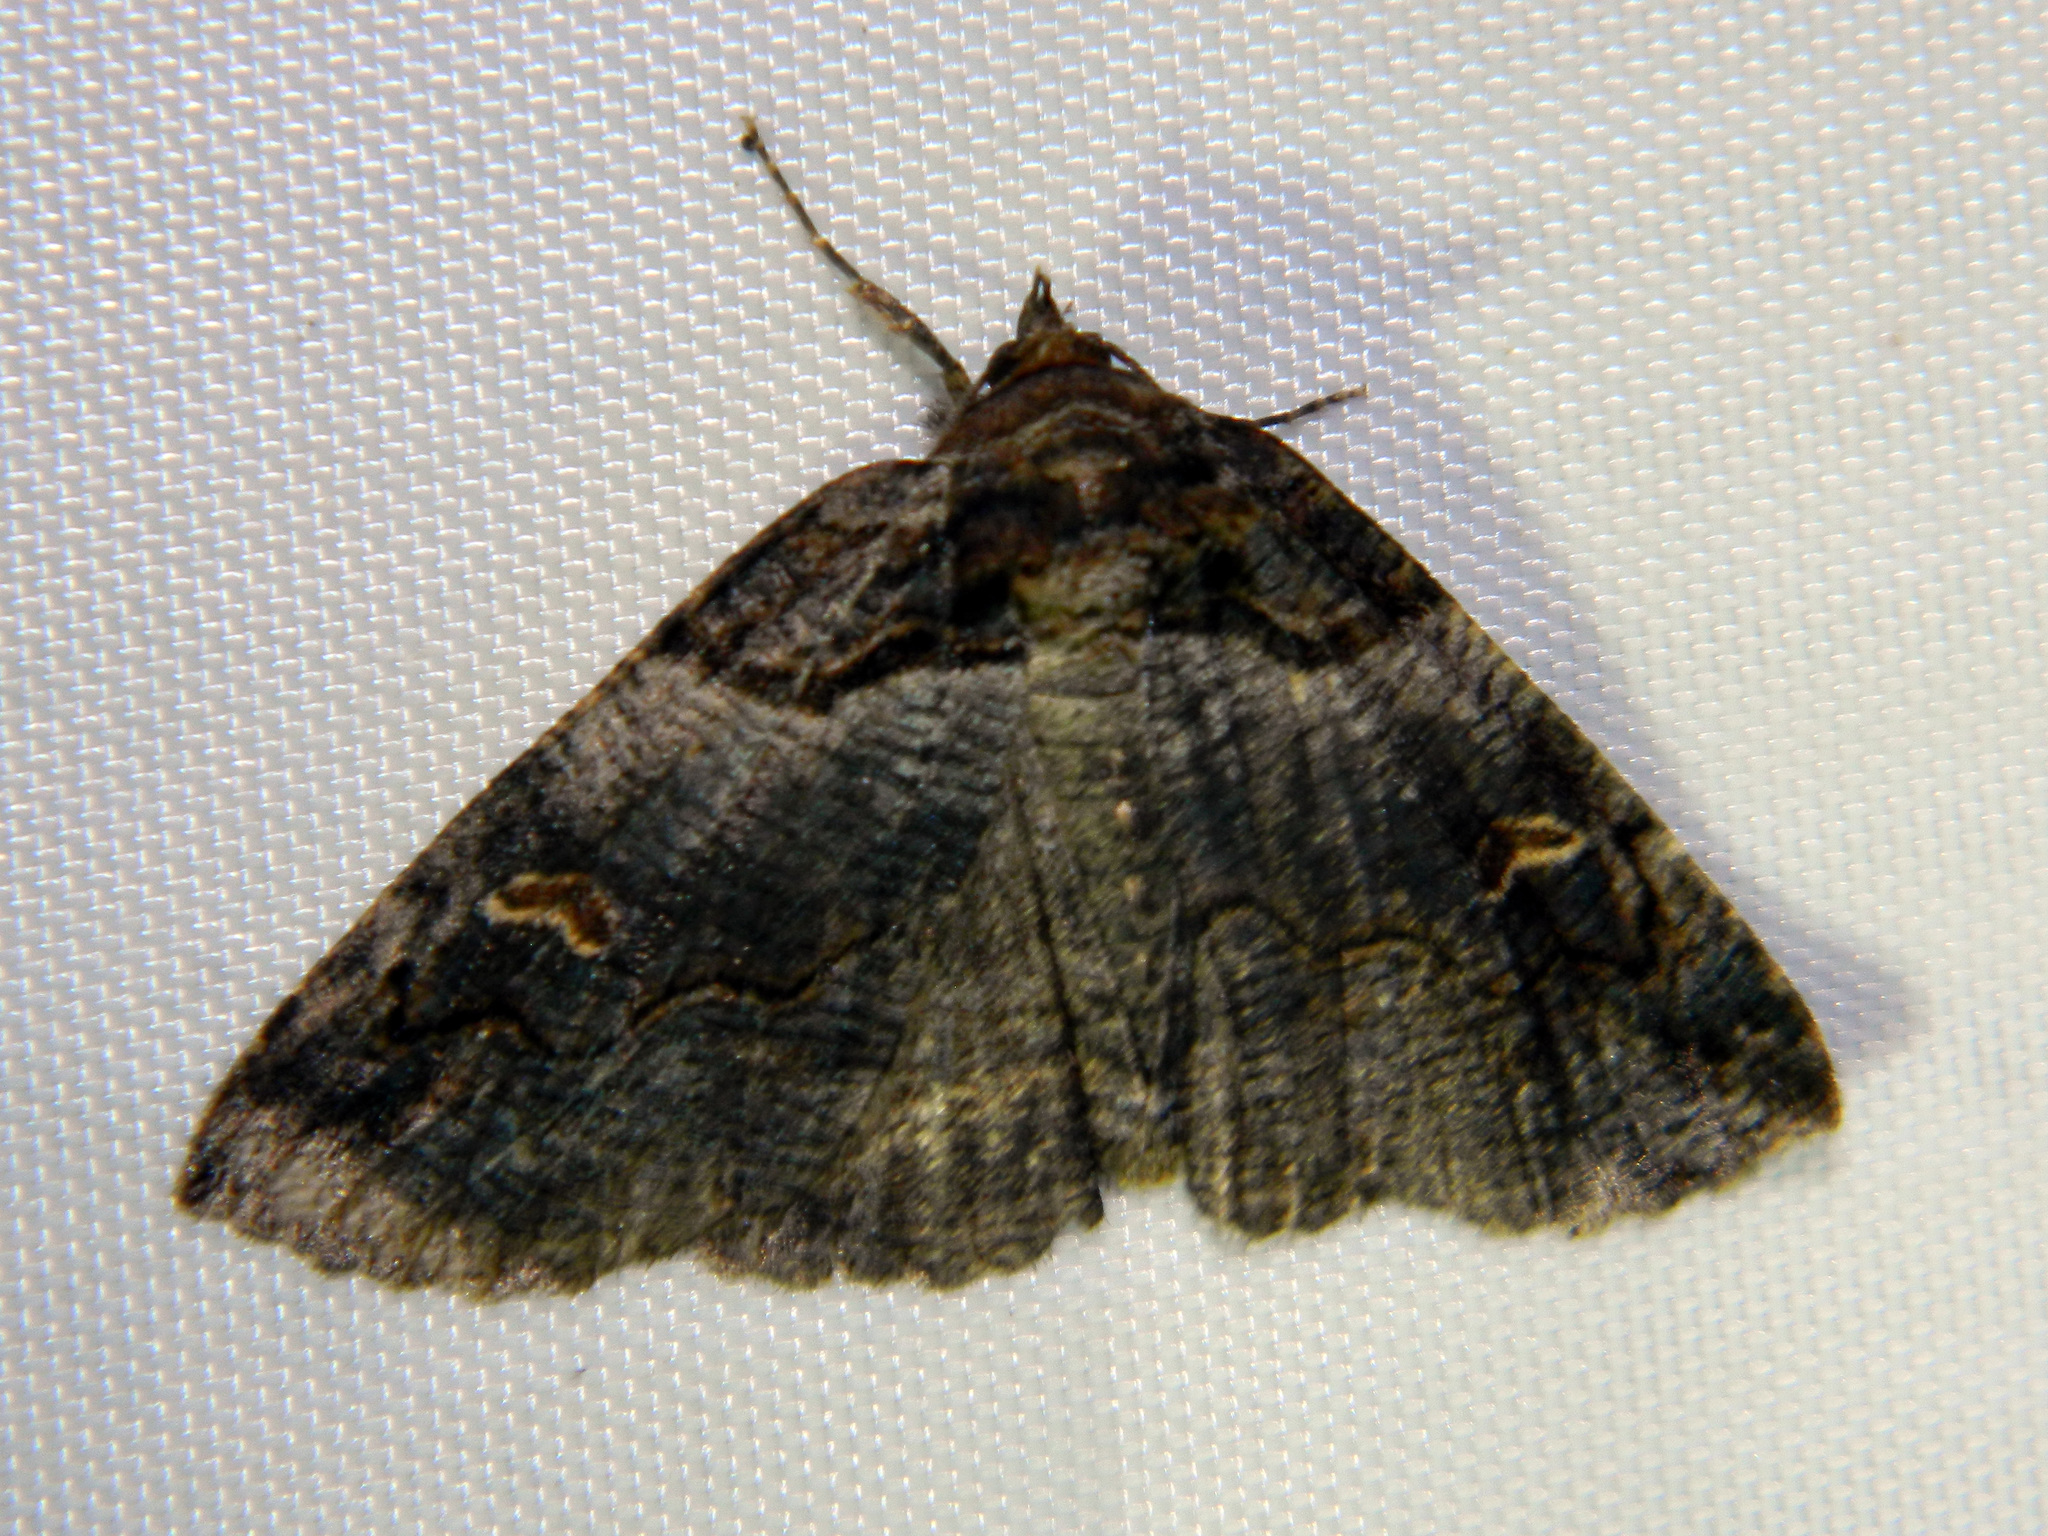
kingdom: Animalia
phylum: Arthropoda
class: Insecta
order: Lepidoptera
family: Erebidae
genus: Zale
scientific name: Zale intenta
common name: Intent zale moth
